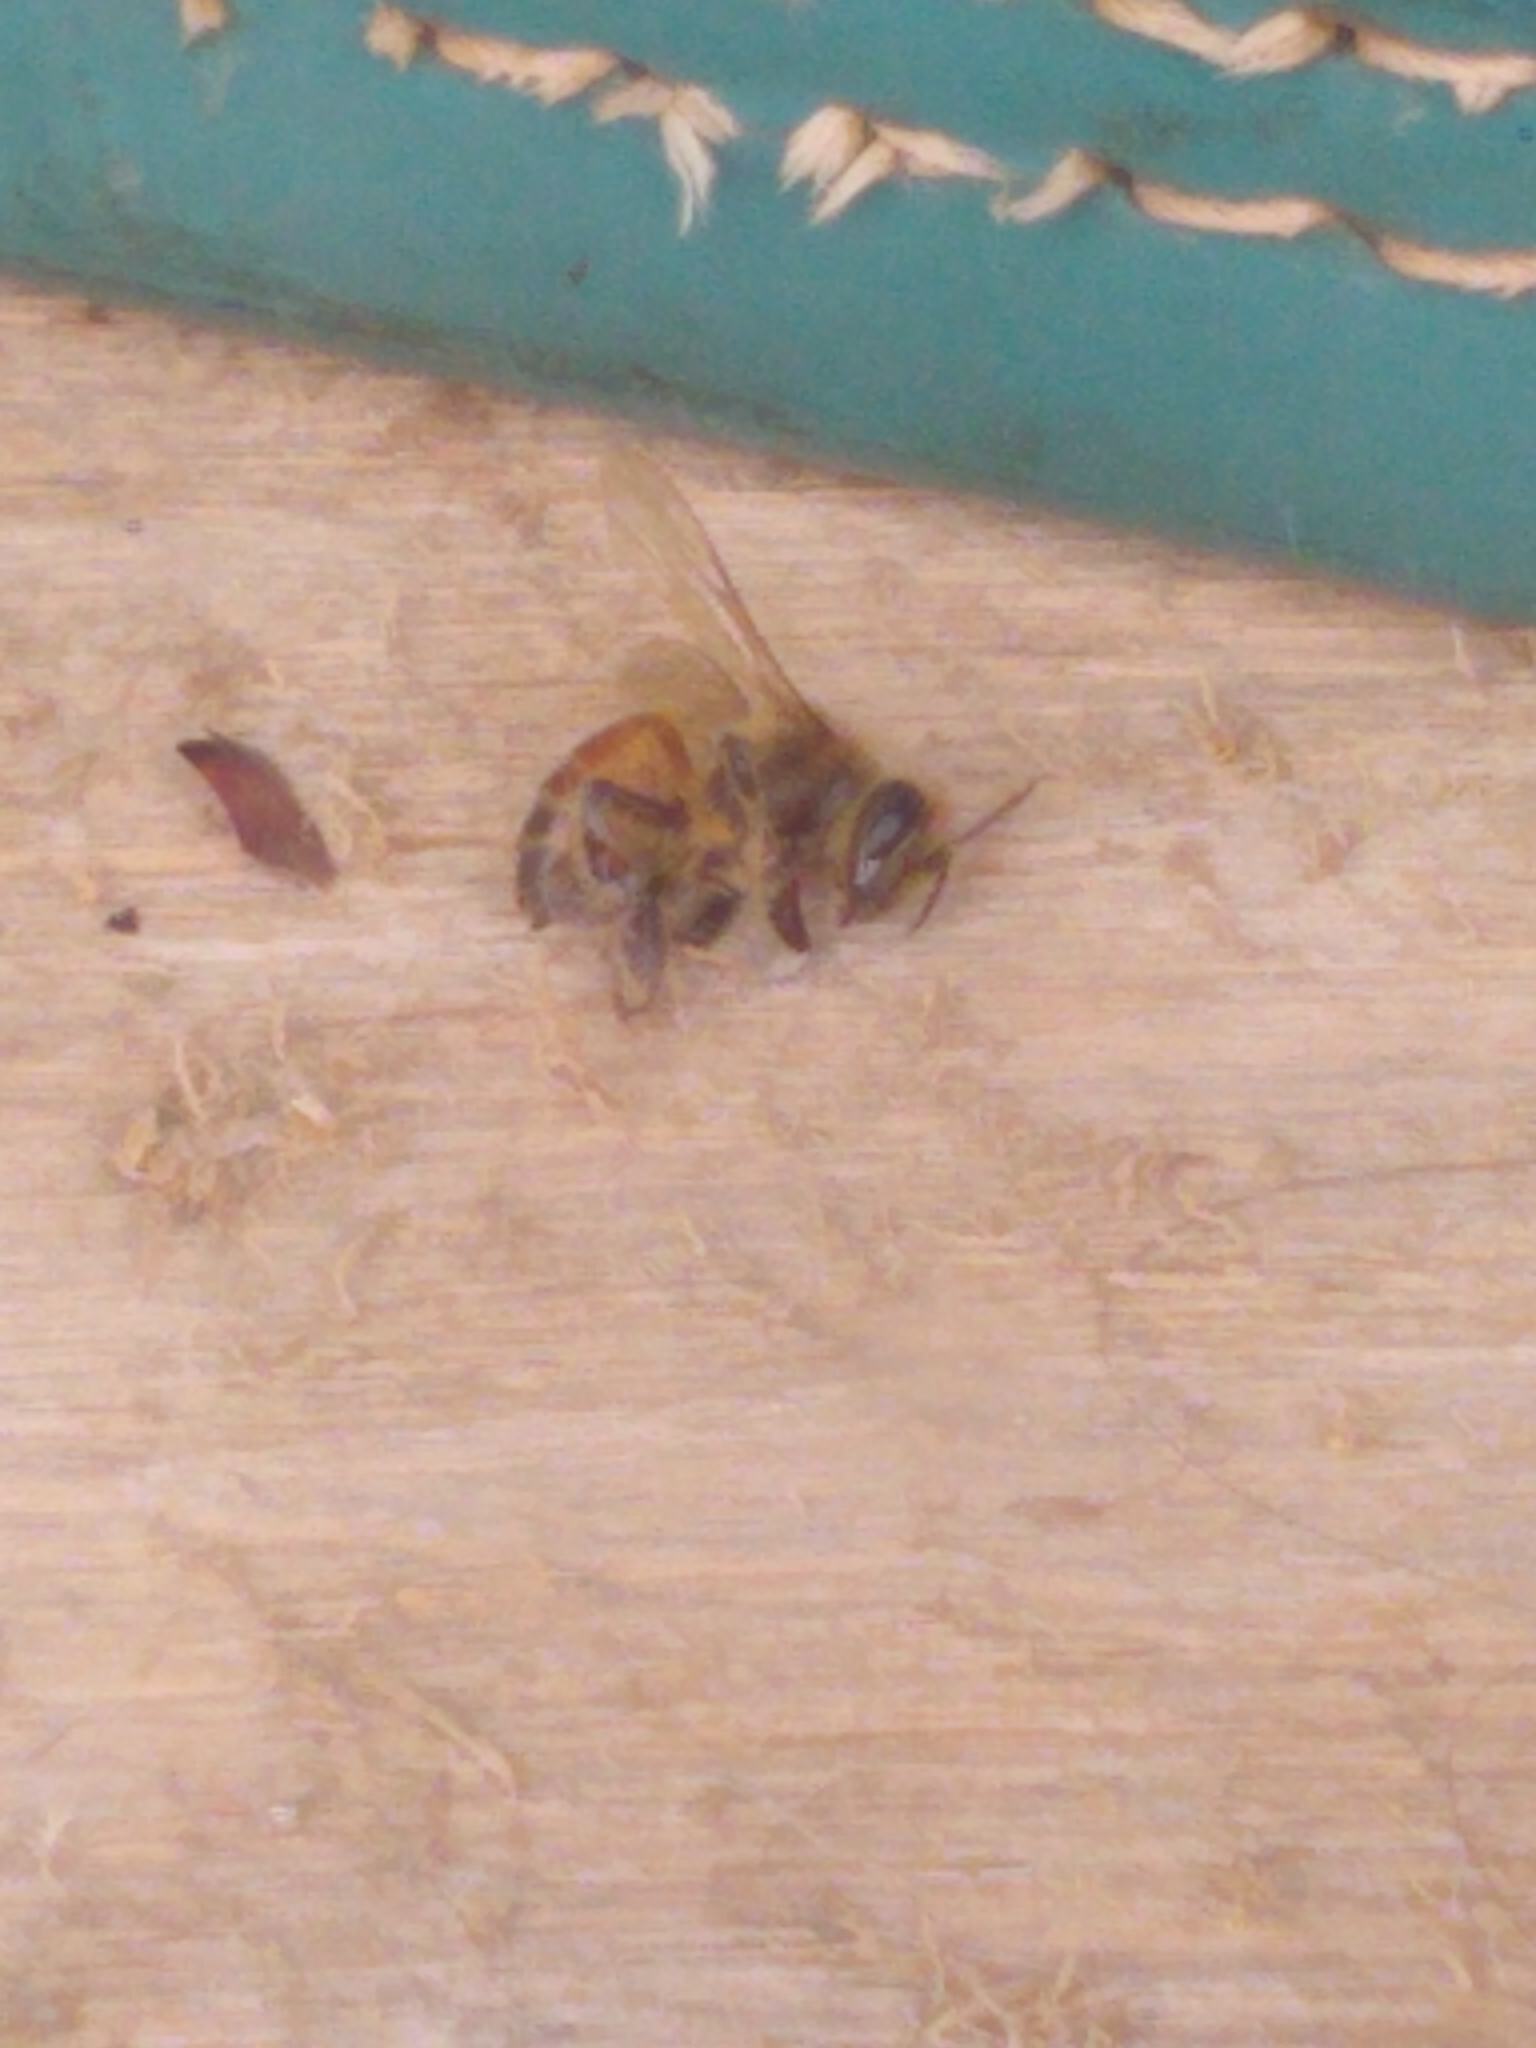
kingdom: Animalia
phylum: Arthropoda
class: Insecta
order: Hymenoptera
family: Apidae
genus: Apis
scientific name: Apis mellifera
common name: Honey bee
